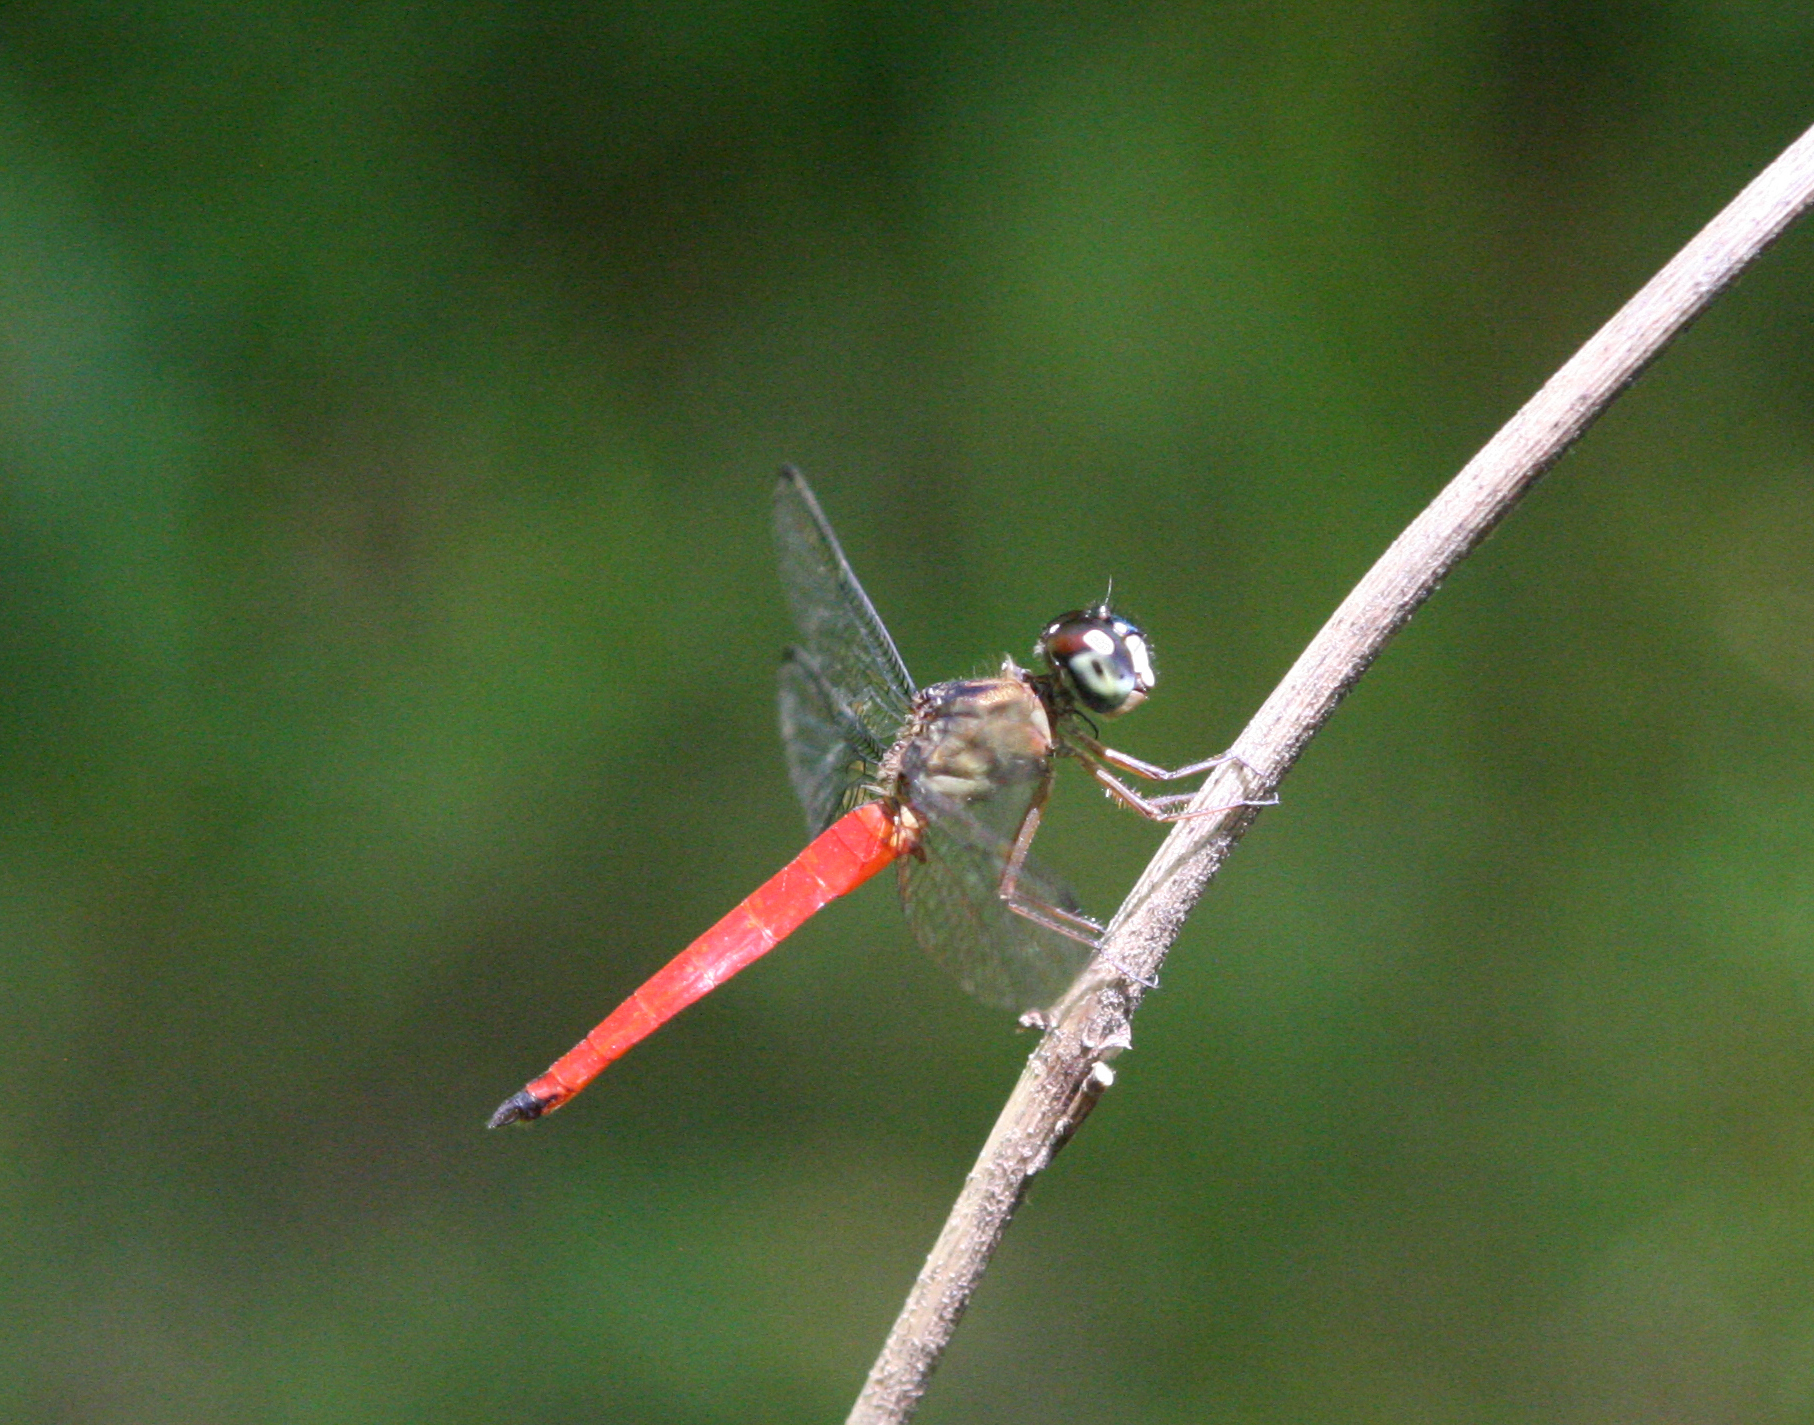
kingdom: Animalia
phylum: Arthropoda
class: Insecta
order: Odonata
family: Libellulidae
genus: Orchithemis
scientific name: Orchithemis pulcherrima
